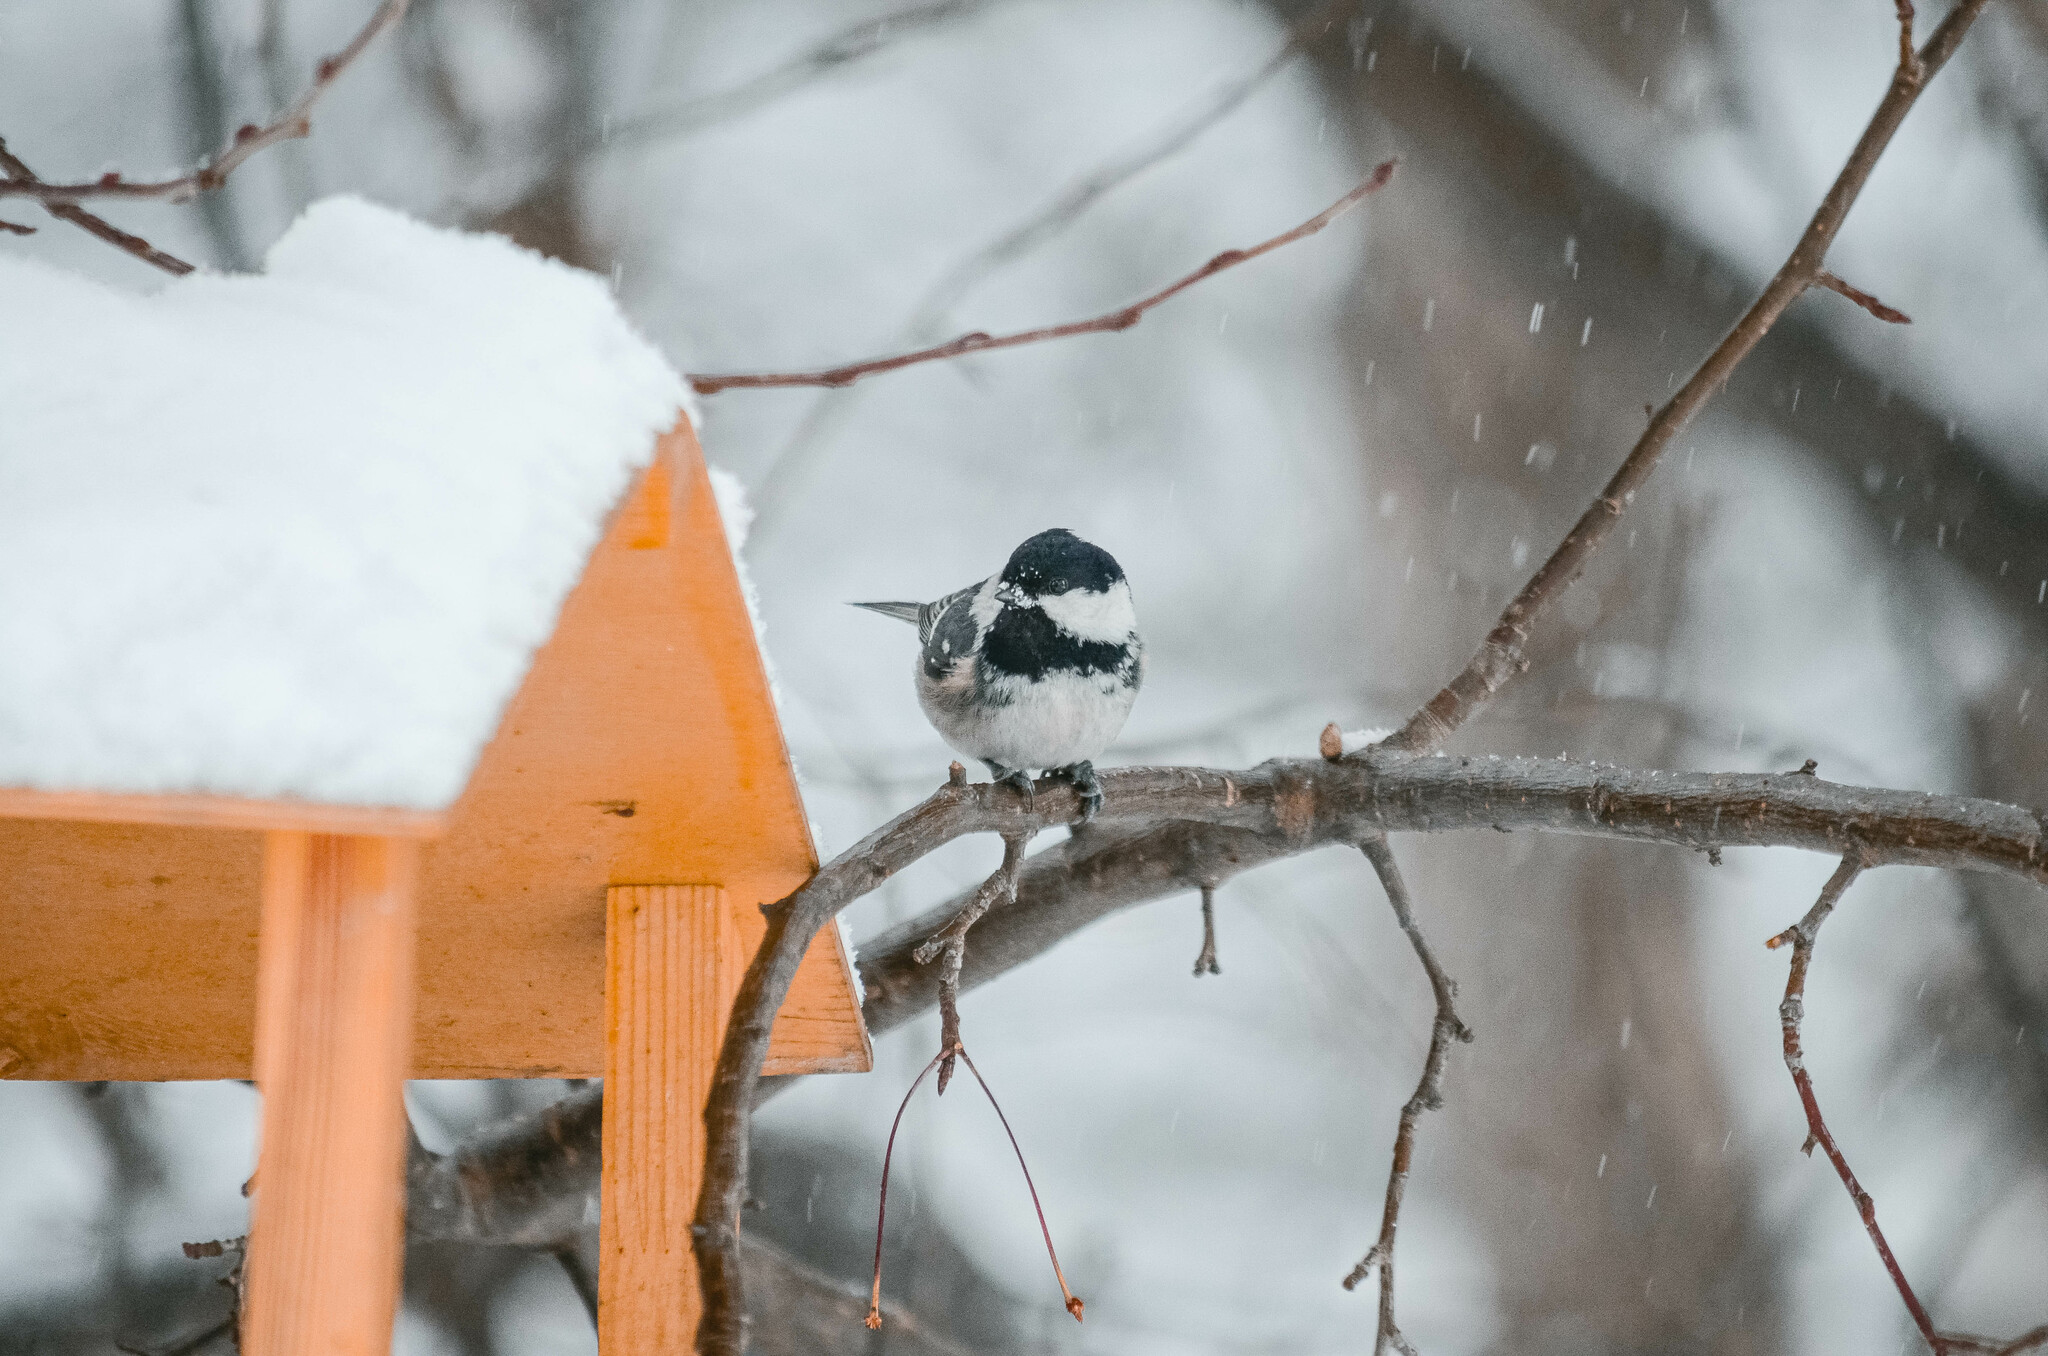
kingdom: Animalia
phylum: Chordata
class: Aves
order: Passeriformes
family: Paridae
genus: Periparus
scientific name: Periparus ater
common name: Coal tit
